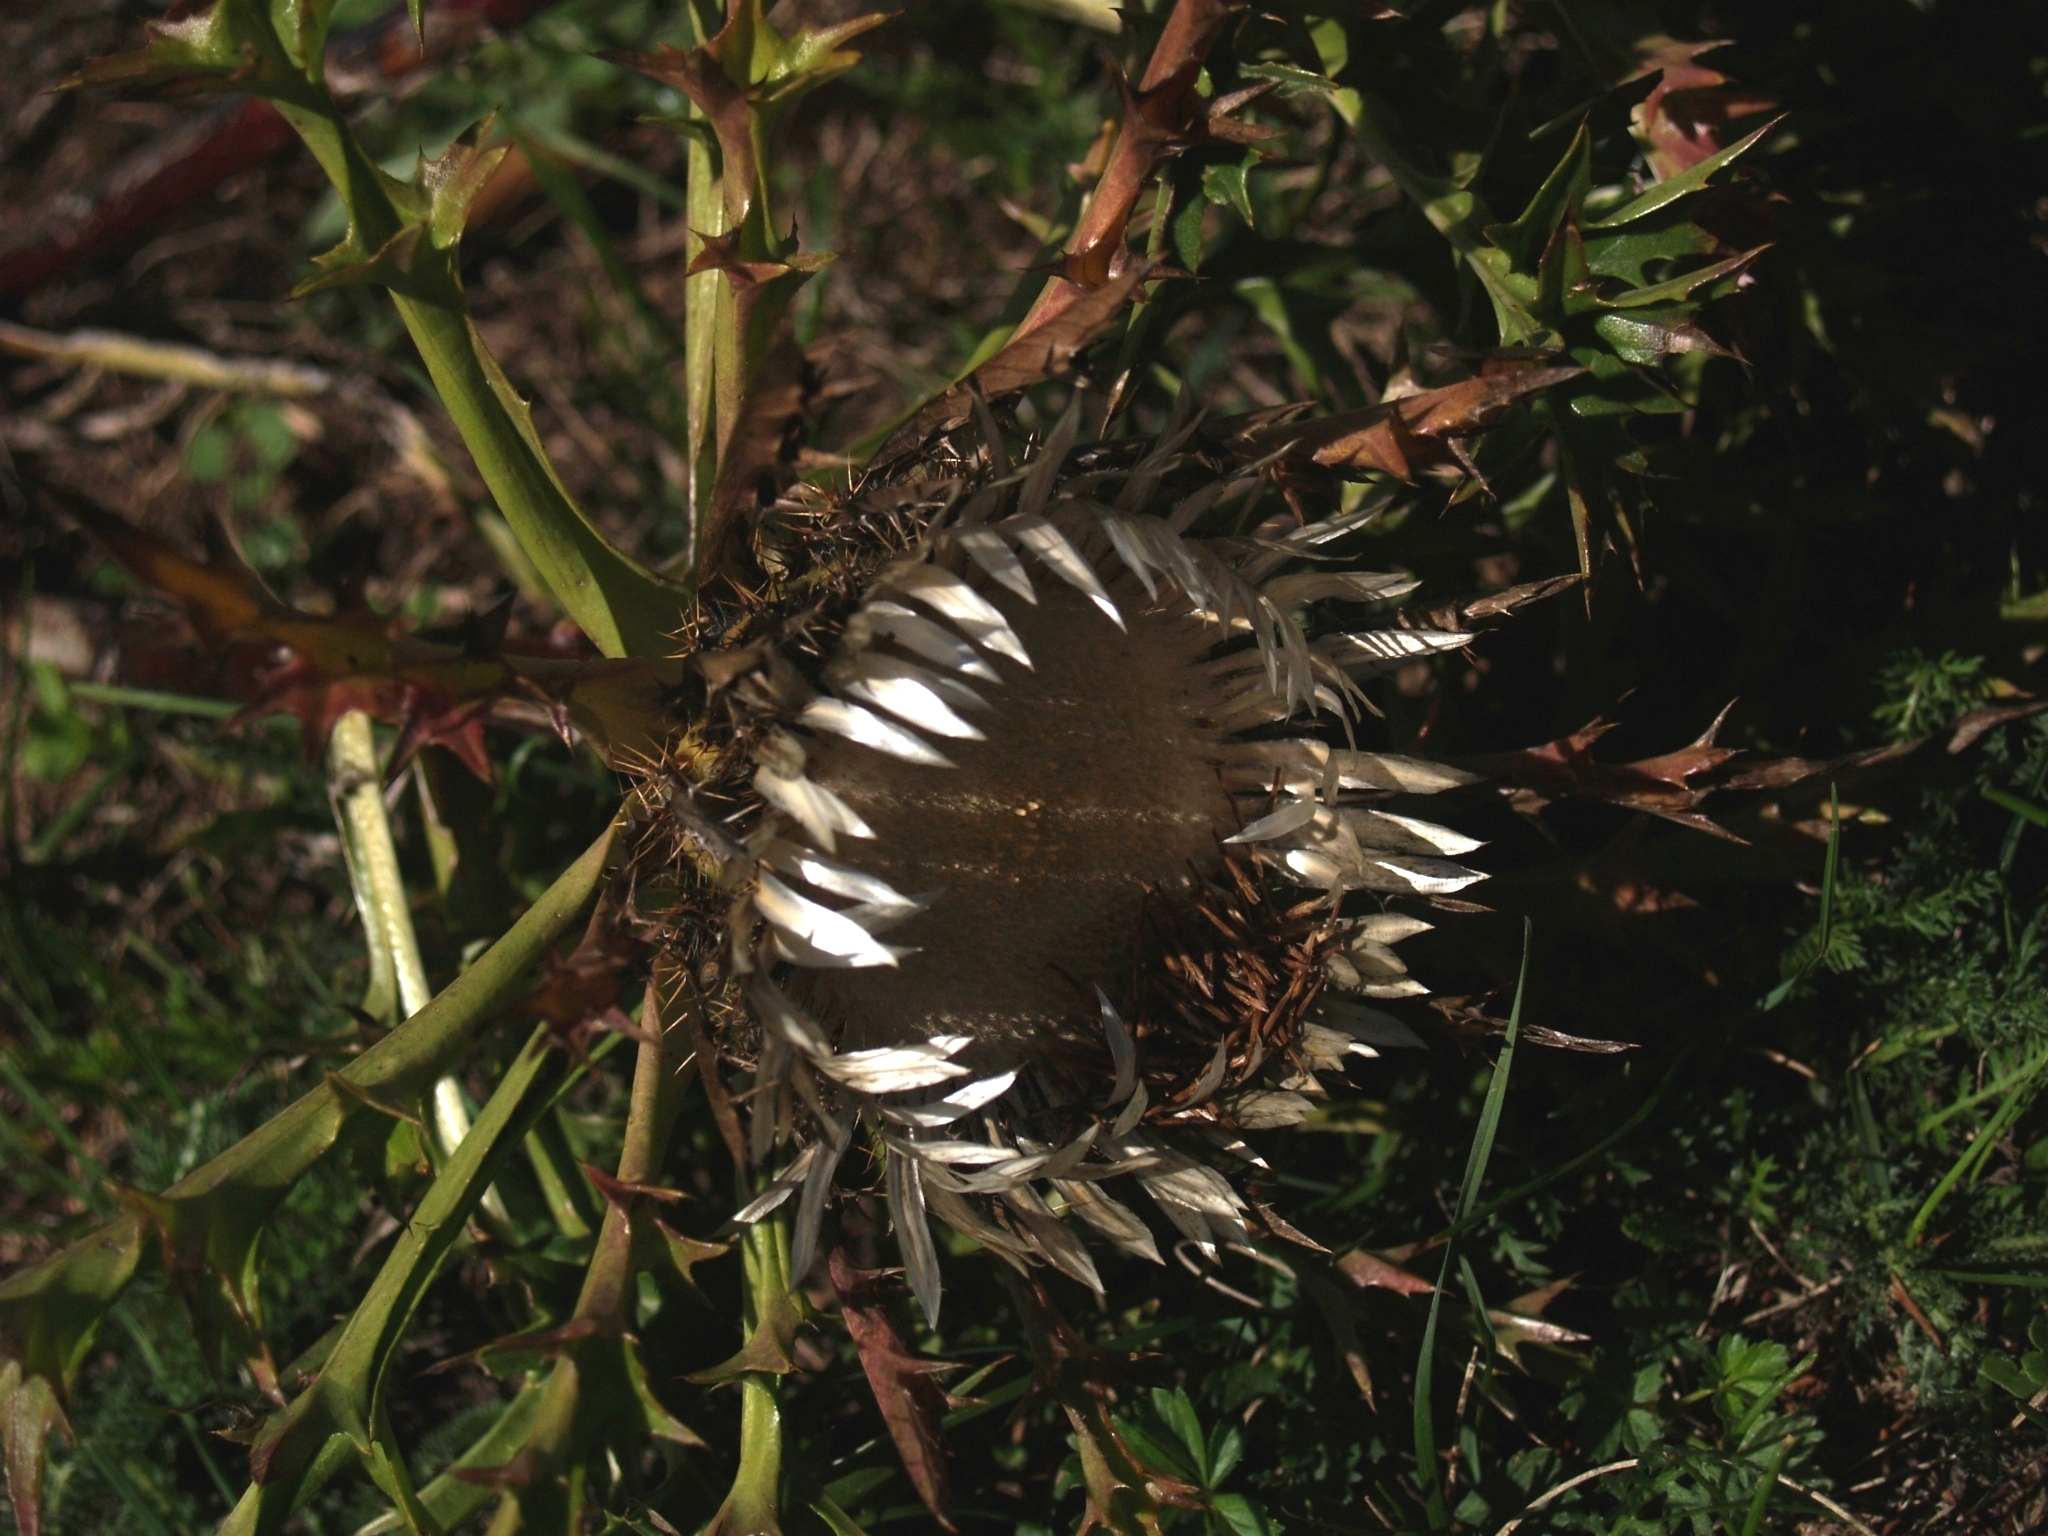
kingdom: Plantae
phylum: Tracheophyta
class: Magnoliopsida
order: Asterales
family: Asteraceae
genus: Carlina
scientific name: Carlina acaulis
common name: Stemless carline thistle
